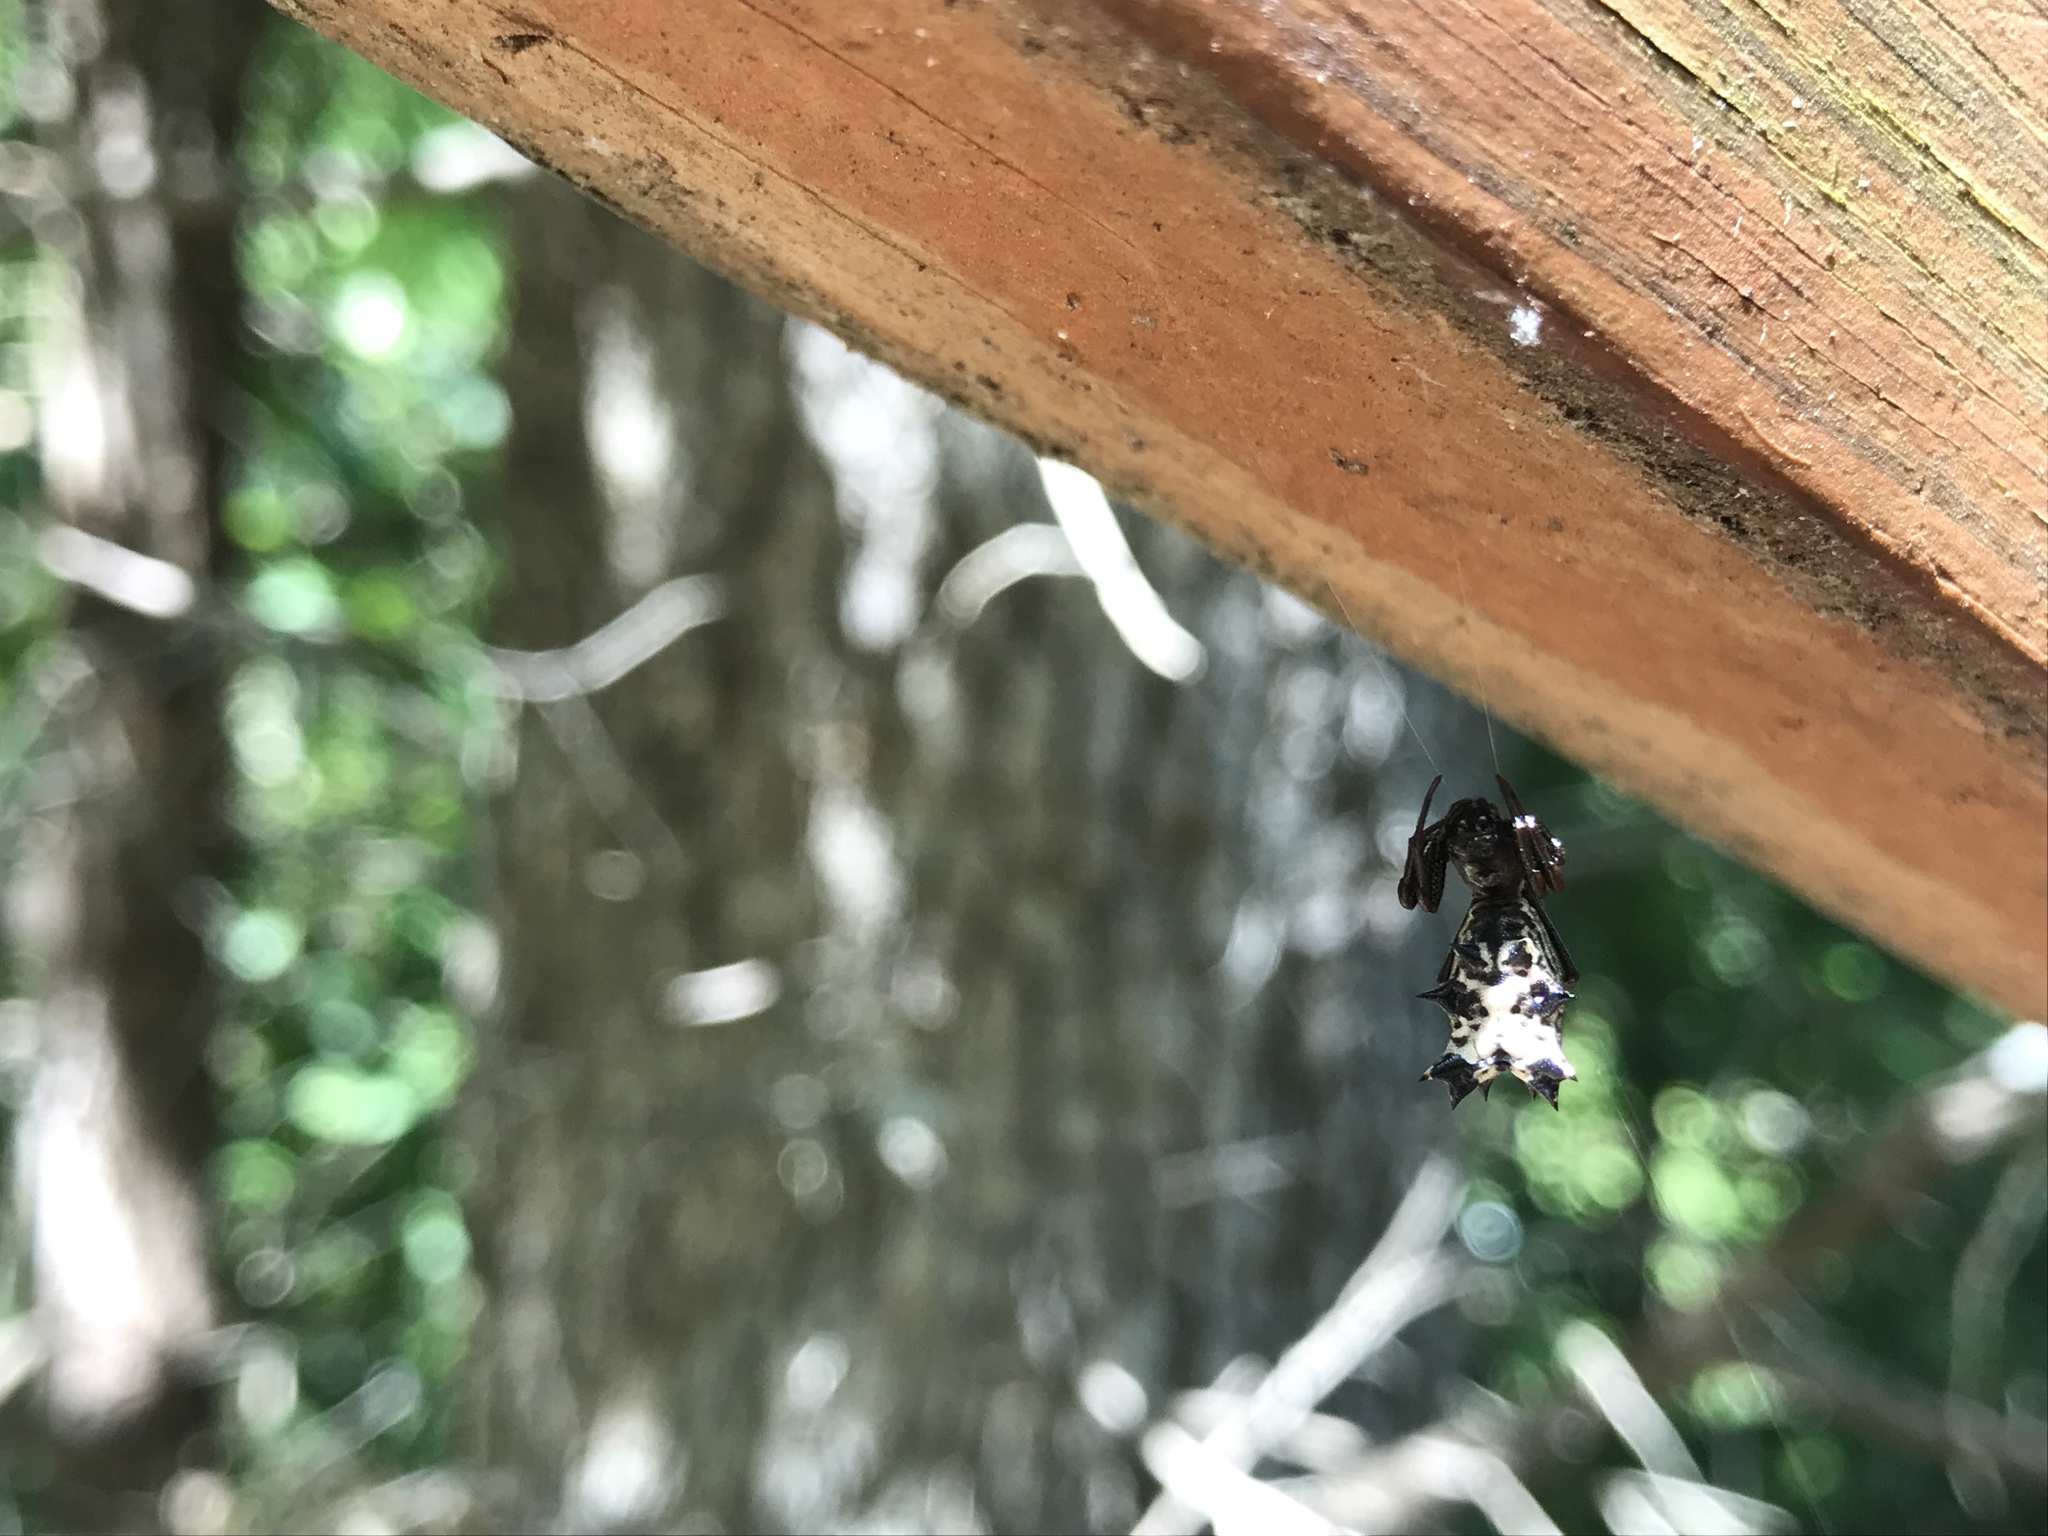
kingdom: Animalia
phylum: Arthropoda
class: Arachnida
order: Araneae
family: Araneidae
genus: Micrathena
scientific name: Micrathena gracilis
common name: Orb weavers
